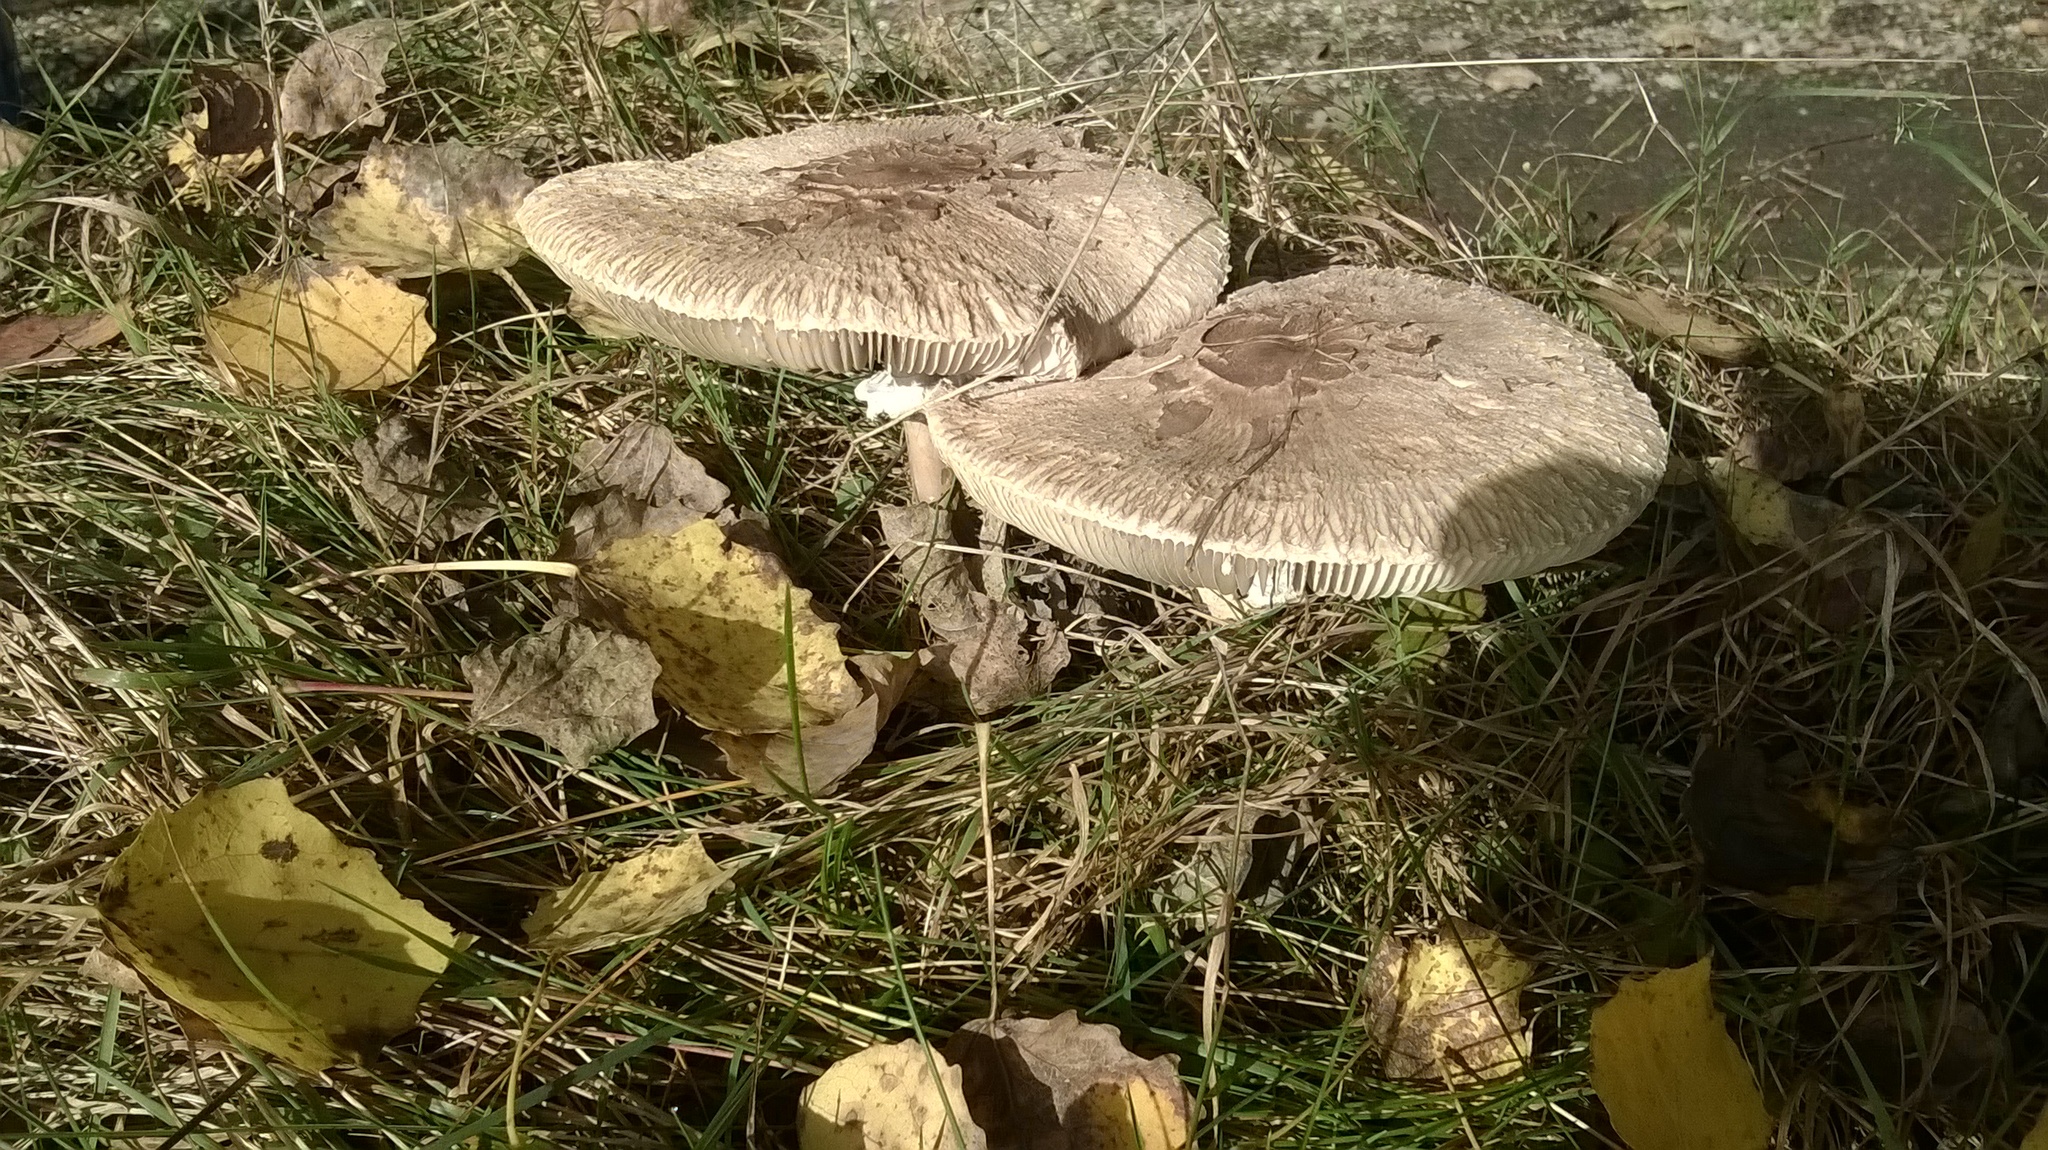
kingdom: Fungi
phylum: Basidiomycota
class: Agaricomycetes
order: Agaricales
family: Agaricaceae
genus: Macrolepiota
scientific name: Macrolepiota procera
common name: Parasol
